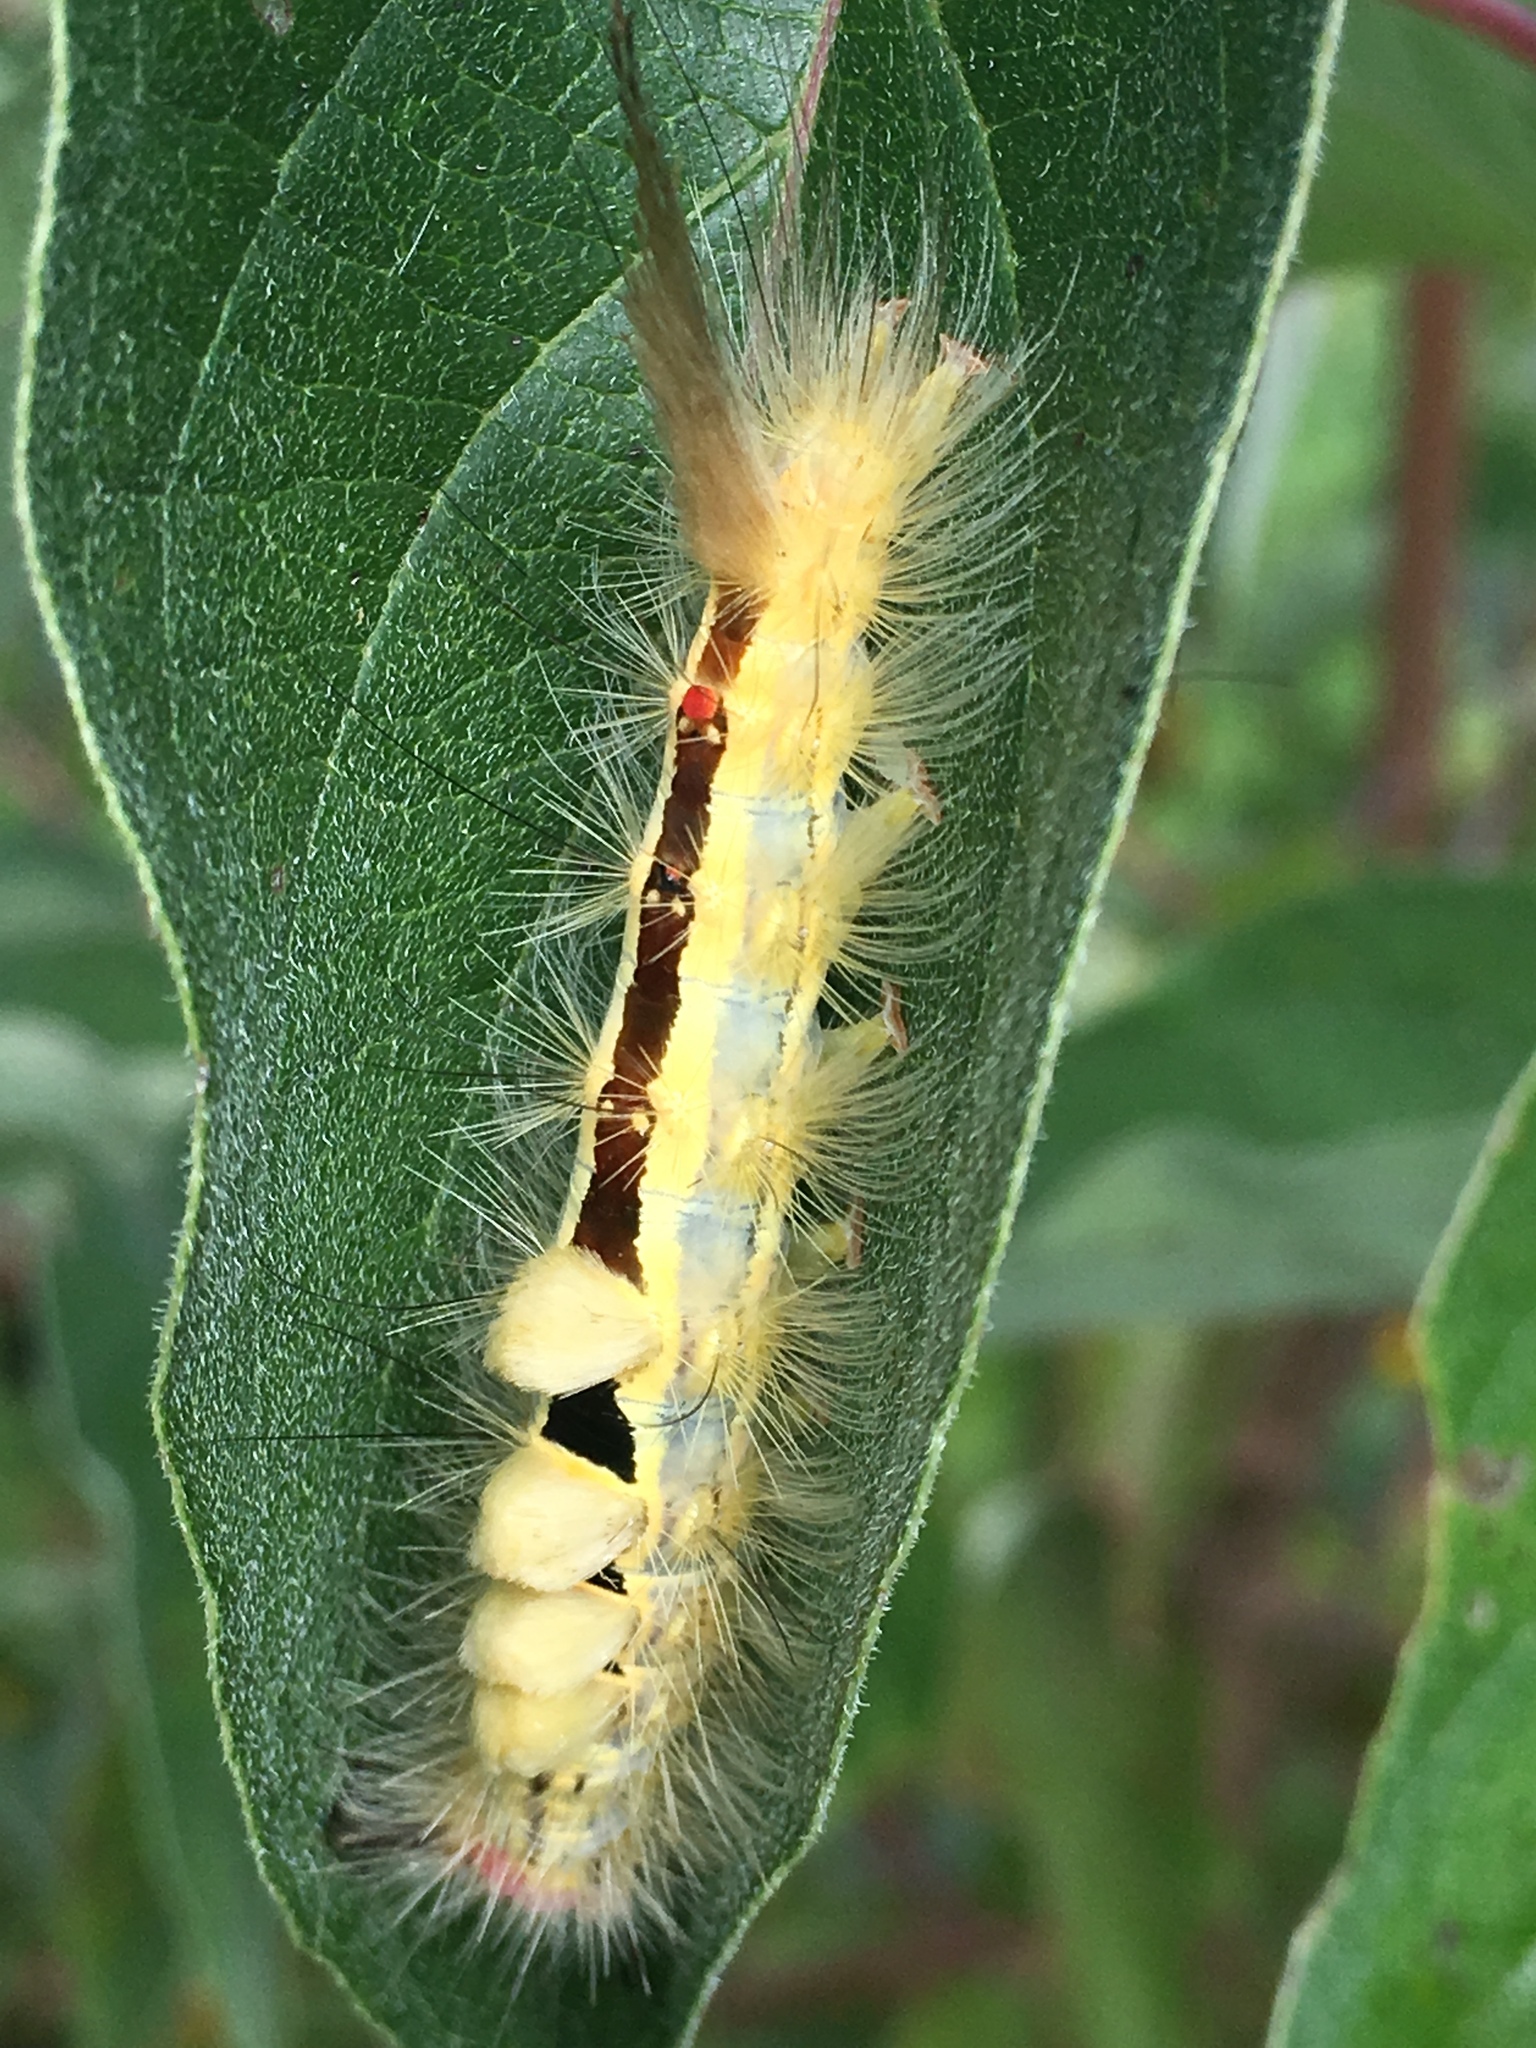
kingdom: Animalia
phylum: Arthropoda
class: Insecta
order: Lepidoptera
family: Erebidae
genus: Orgyia
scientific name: Orgyia leucostigma
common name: White-marked tussock moth
